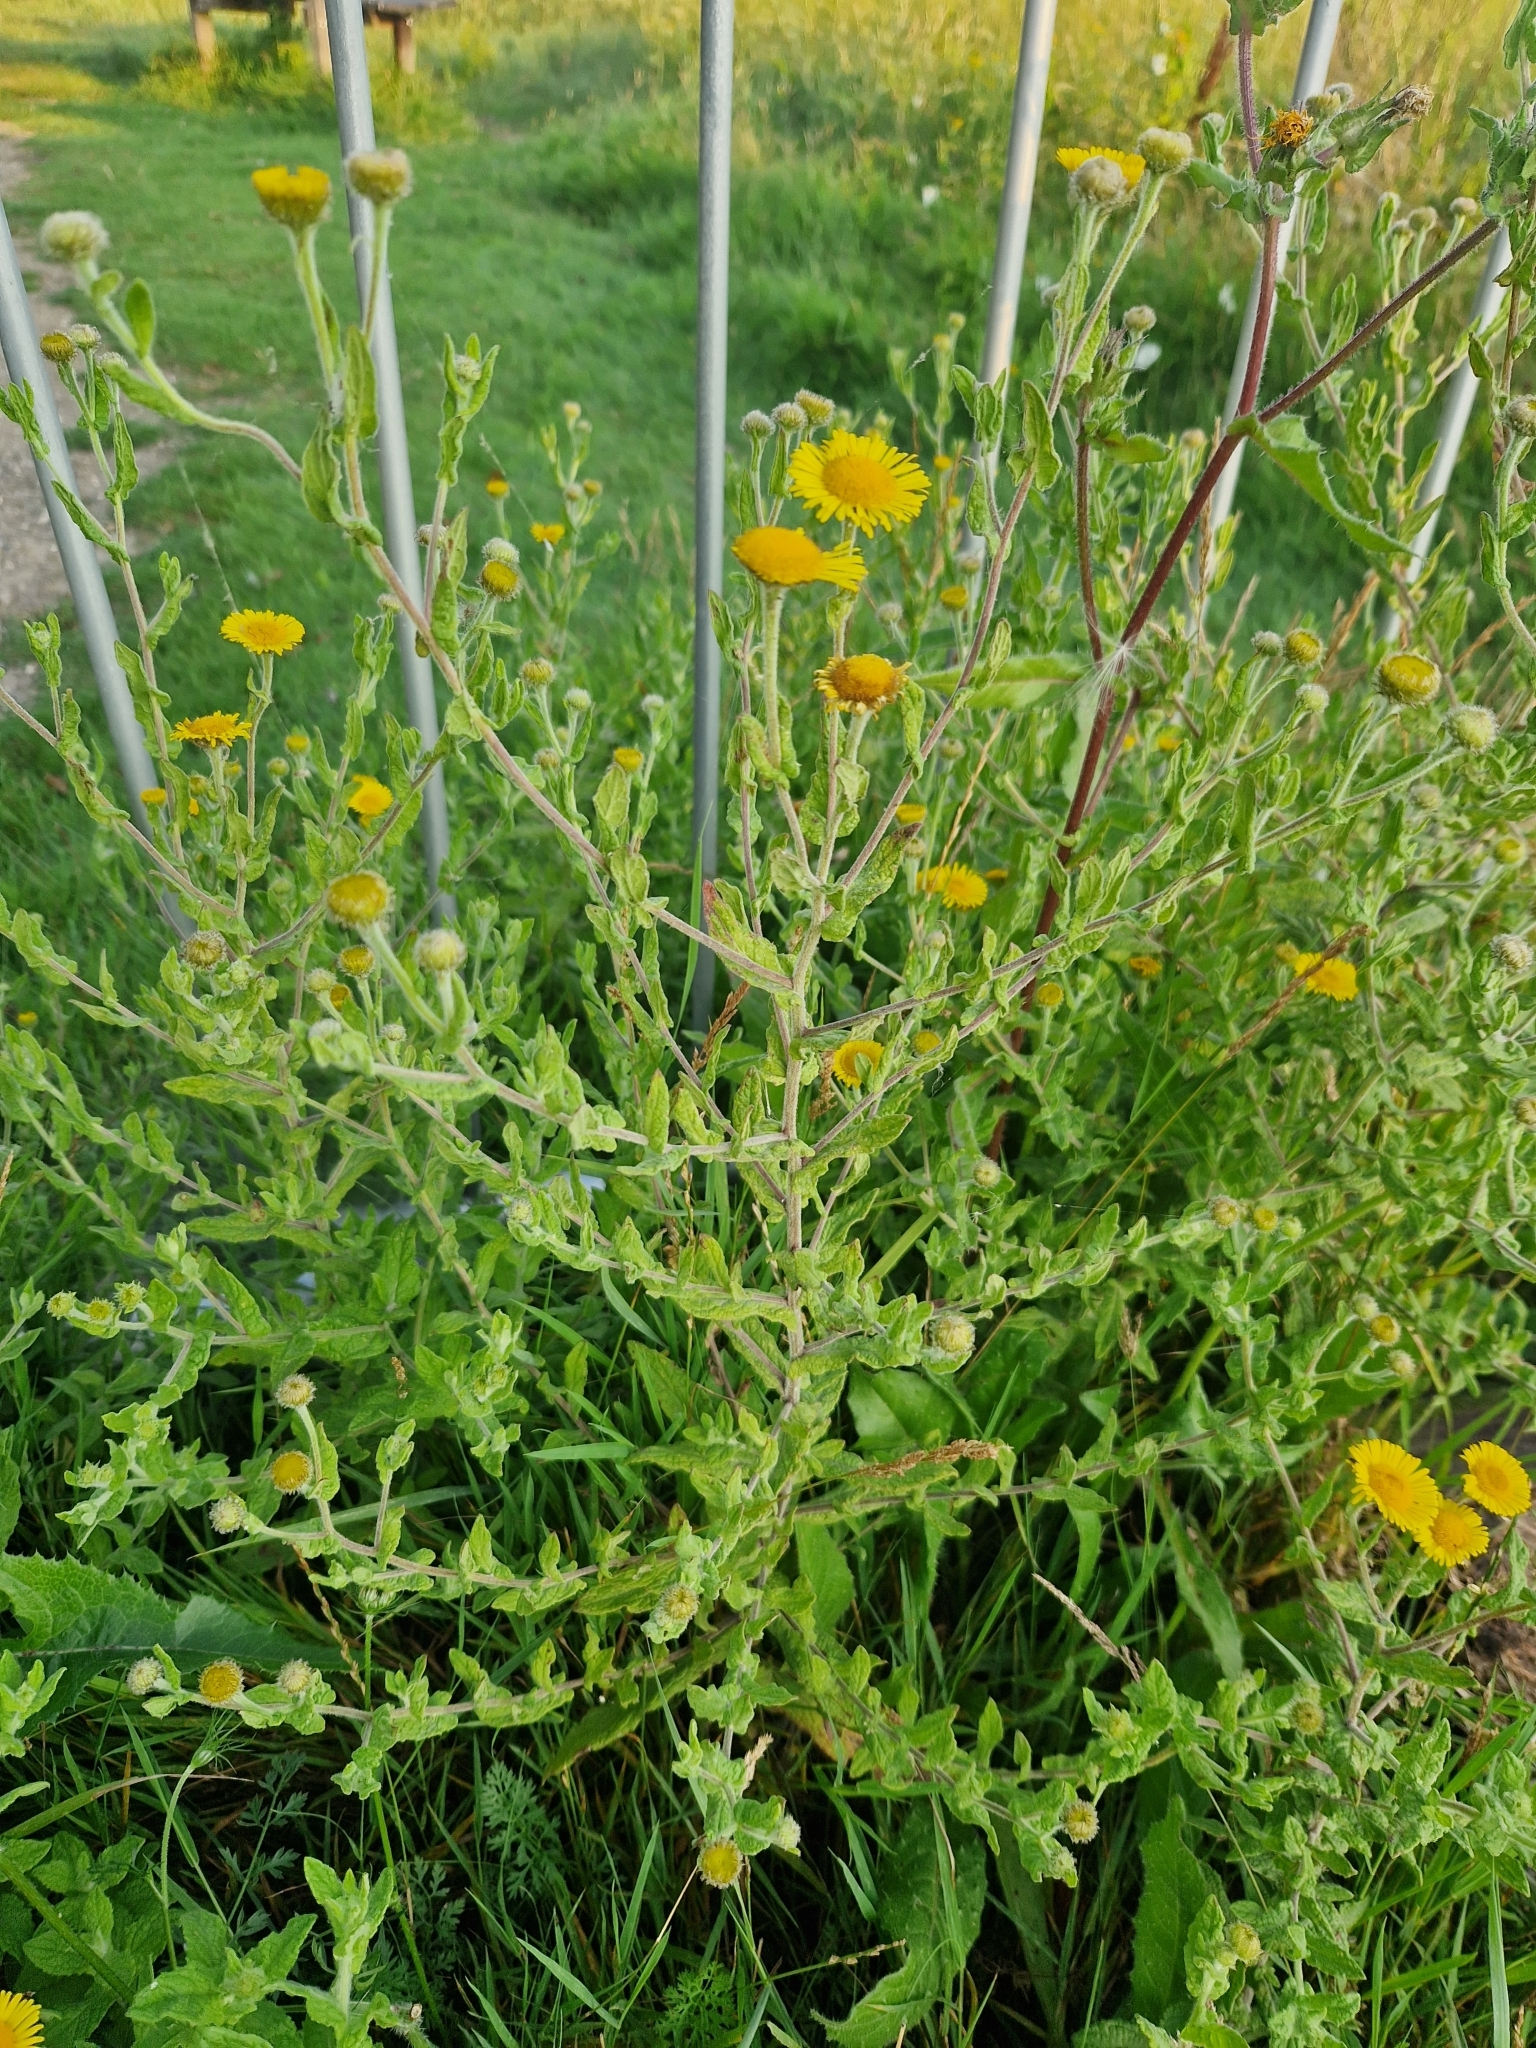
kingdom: Plantae
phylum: Tracheophyta
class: Magnoliopsida
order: Asterales
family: Asteraceae
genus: Pulicaria
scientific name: Pulicaria dysenterica
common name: Common fleabane
